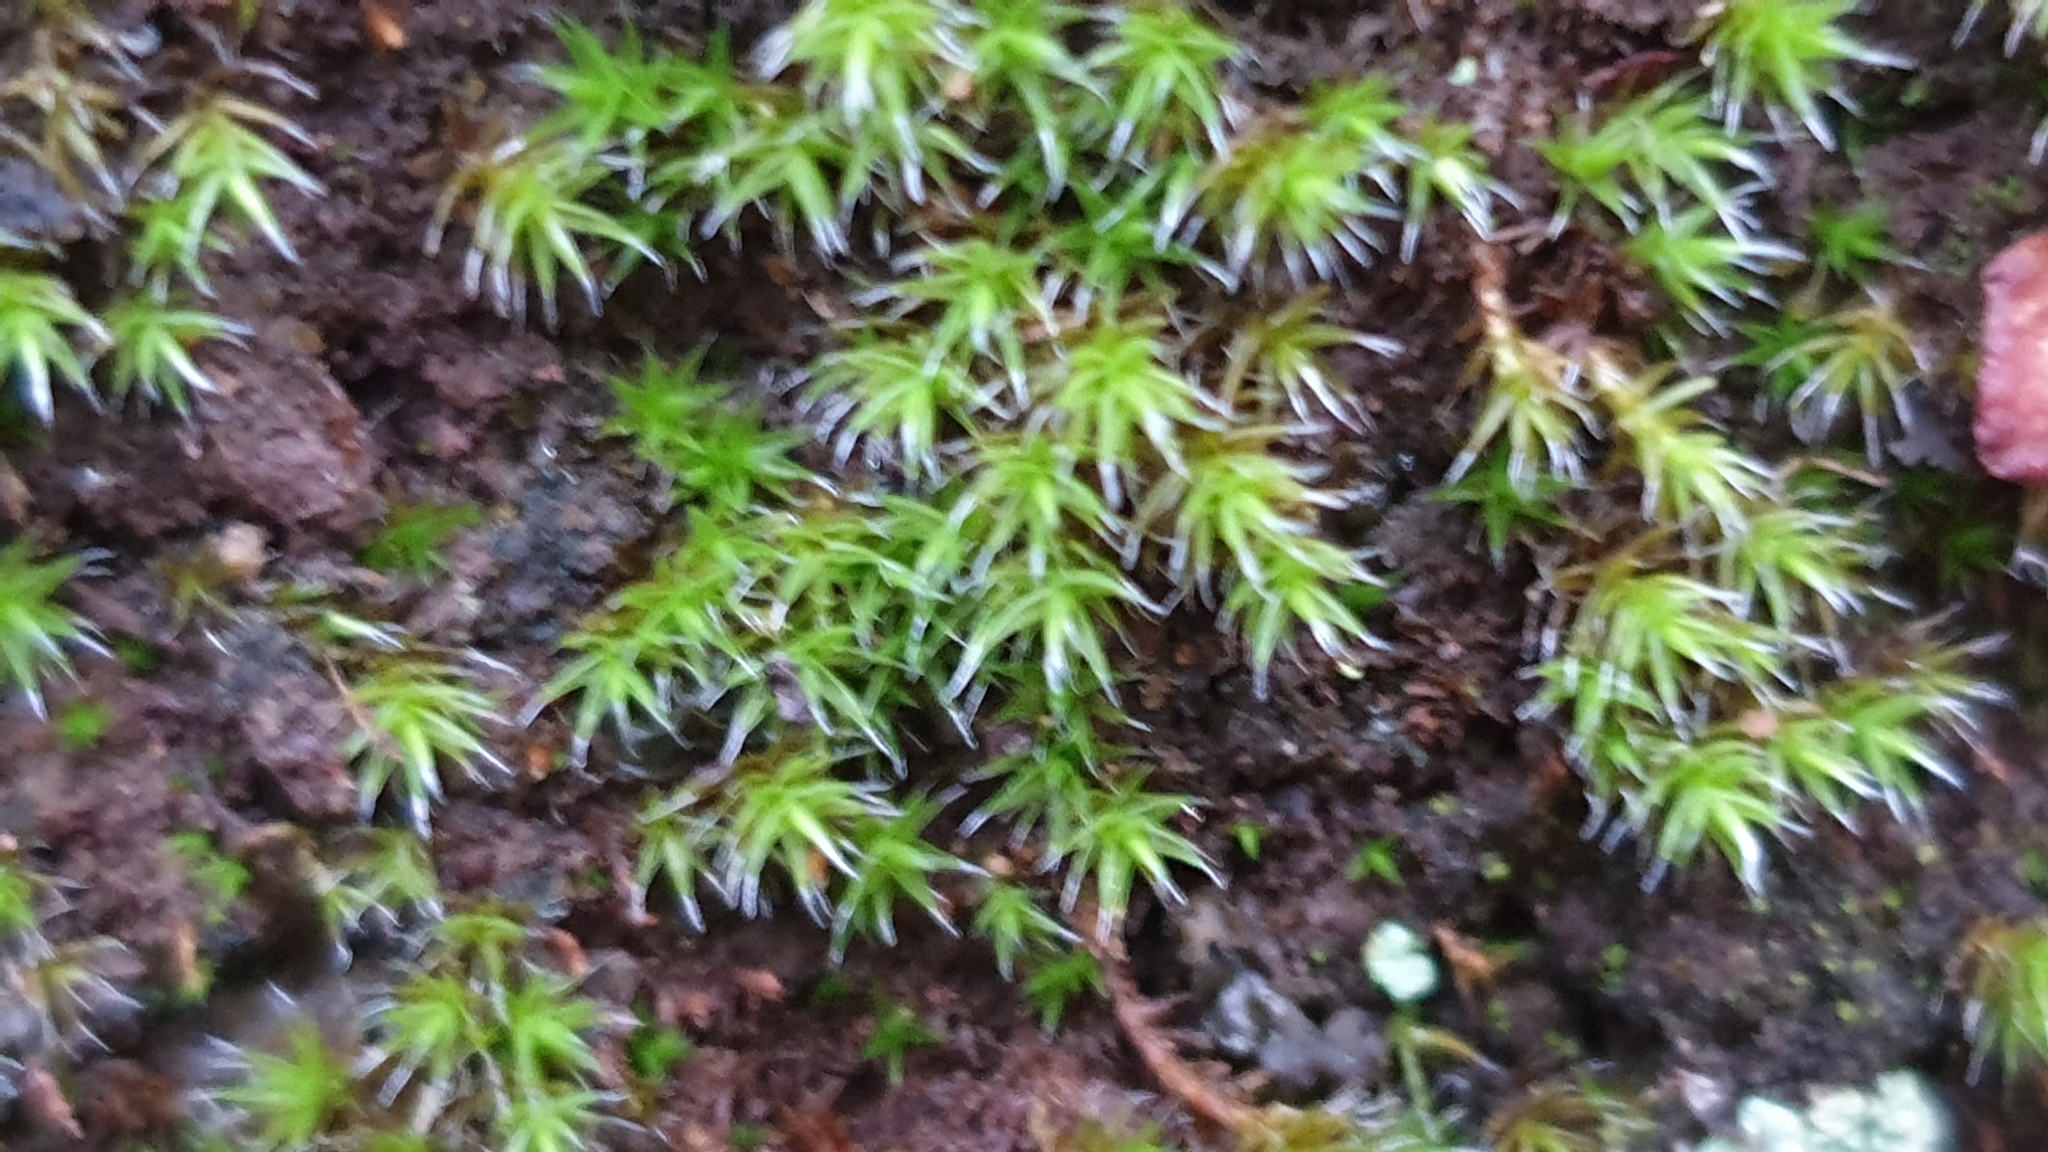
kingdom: Plantae
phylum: Bryophyta
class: Bryopsida
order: Grimmiales
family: Grimmiaceae
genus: Grimmia
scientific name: Grimmia laevigata
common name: Hoary grimmia
